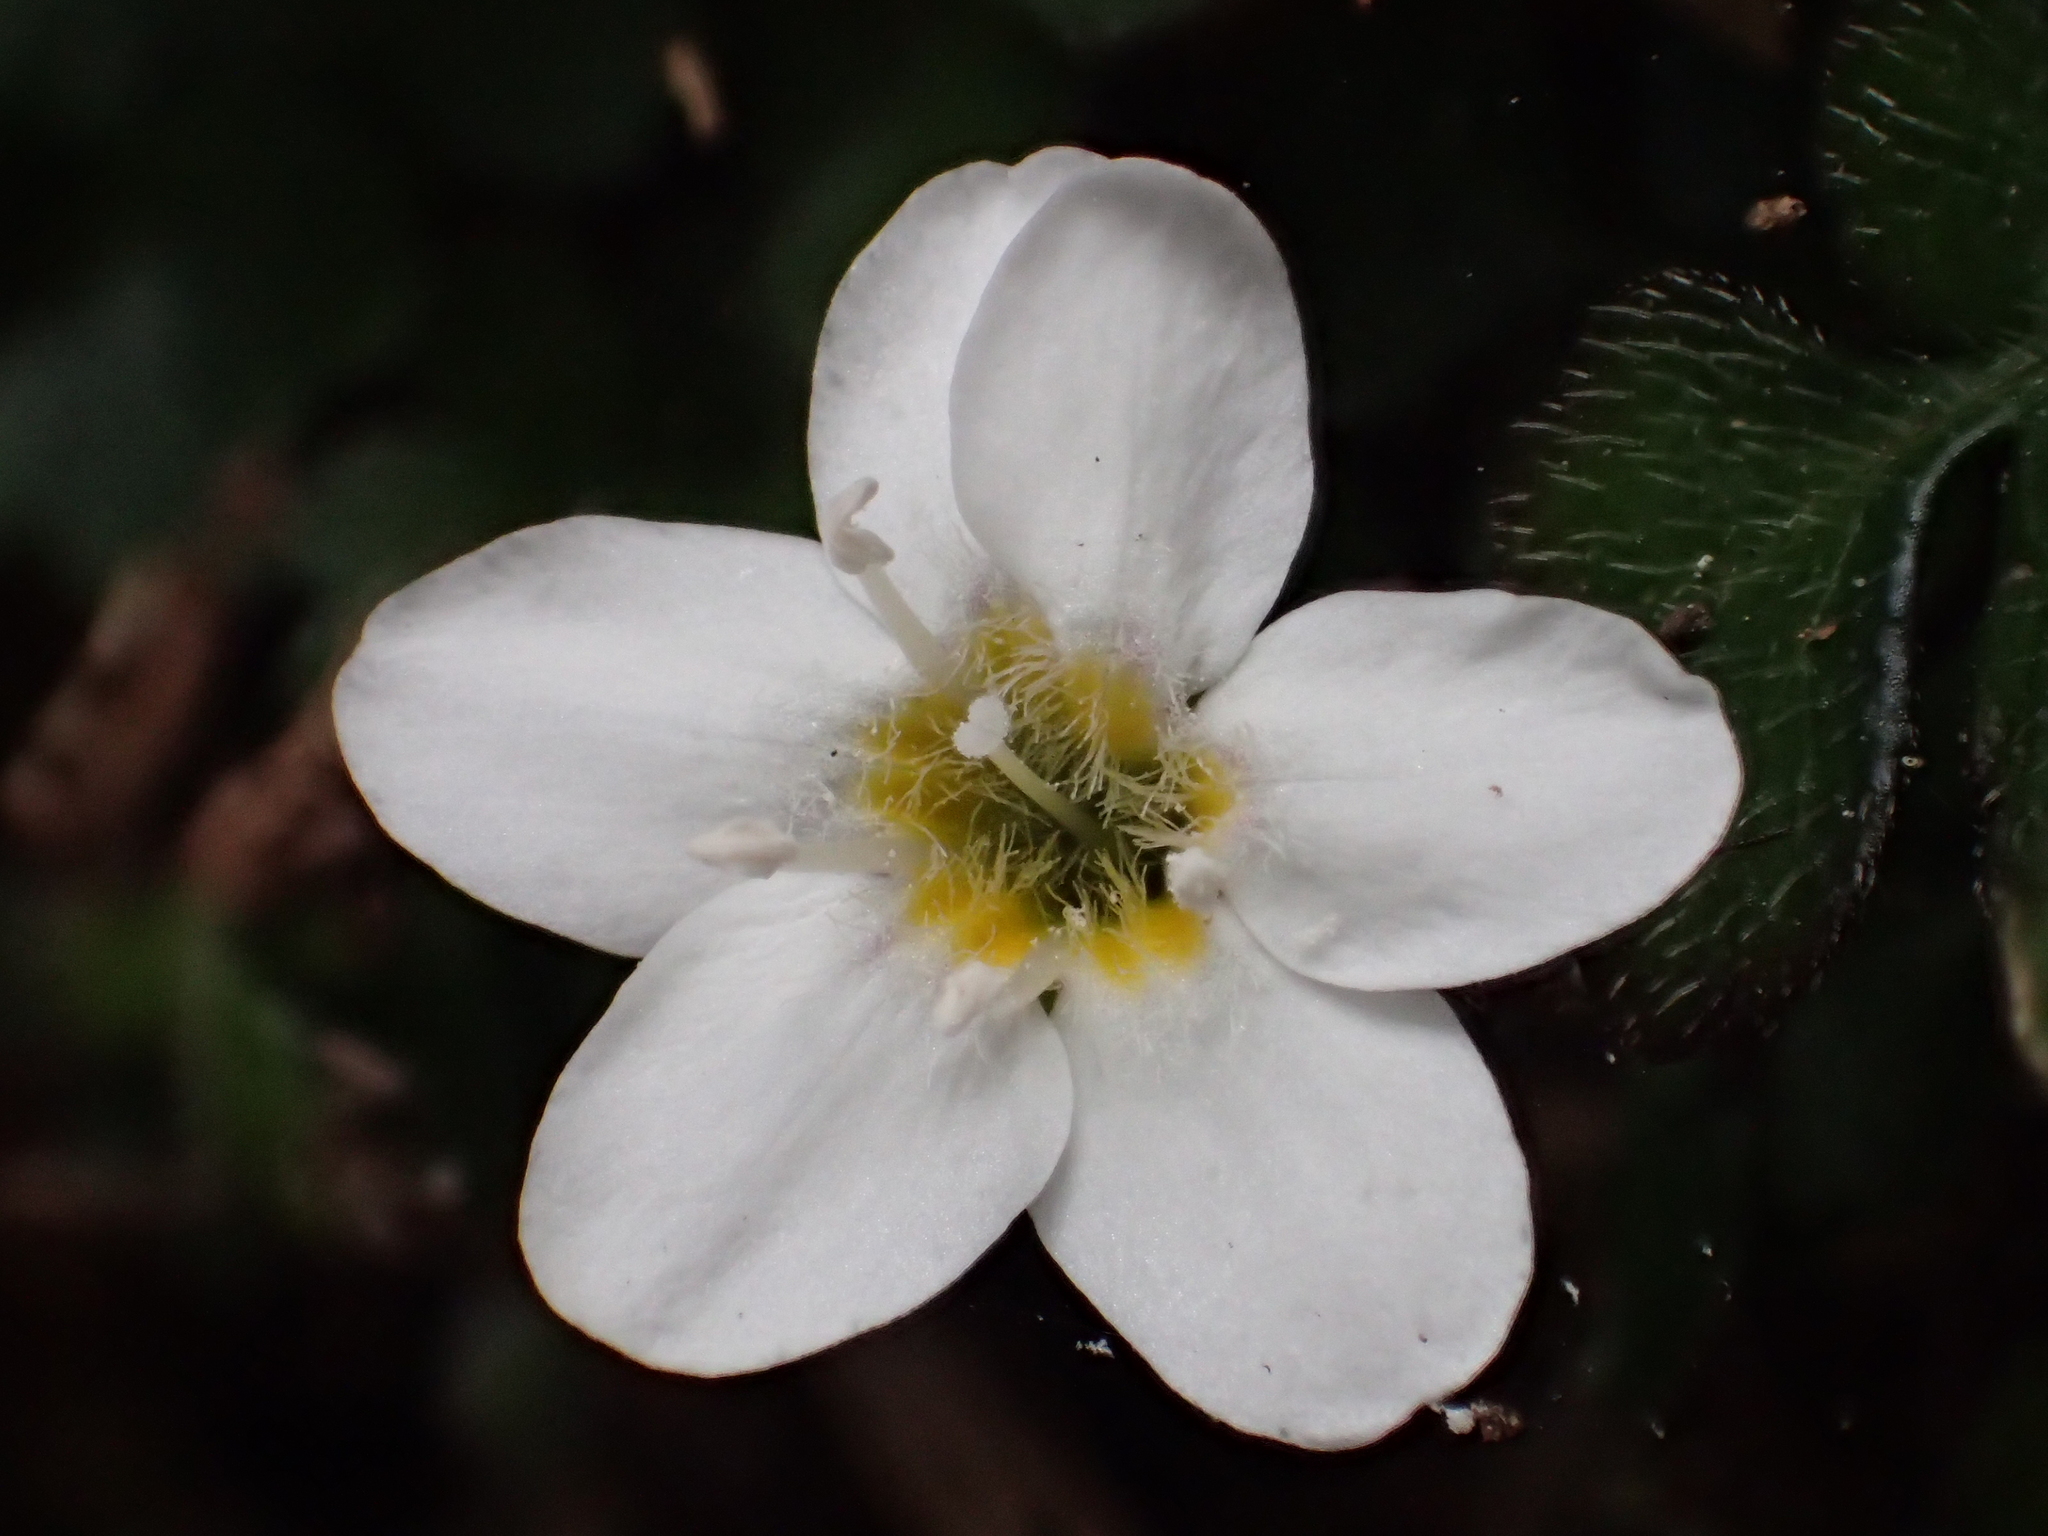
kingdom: Plantae
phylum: Tracheophyta
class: Magnoliopsida
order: Lamiales
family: Plantaginaceae
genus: Ellisiophyllum
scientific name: Ellisiophyllum pinnatum
